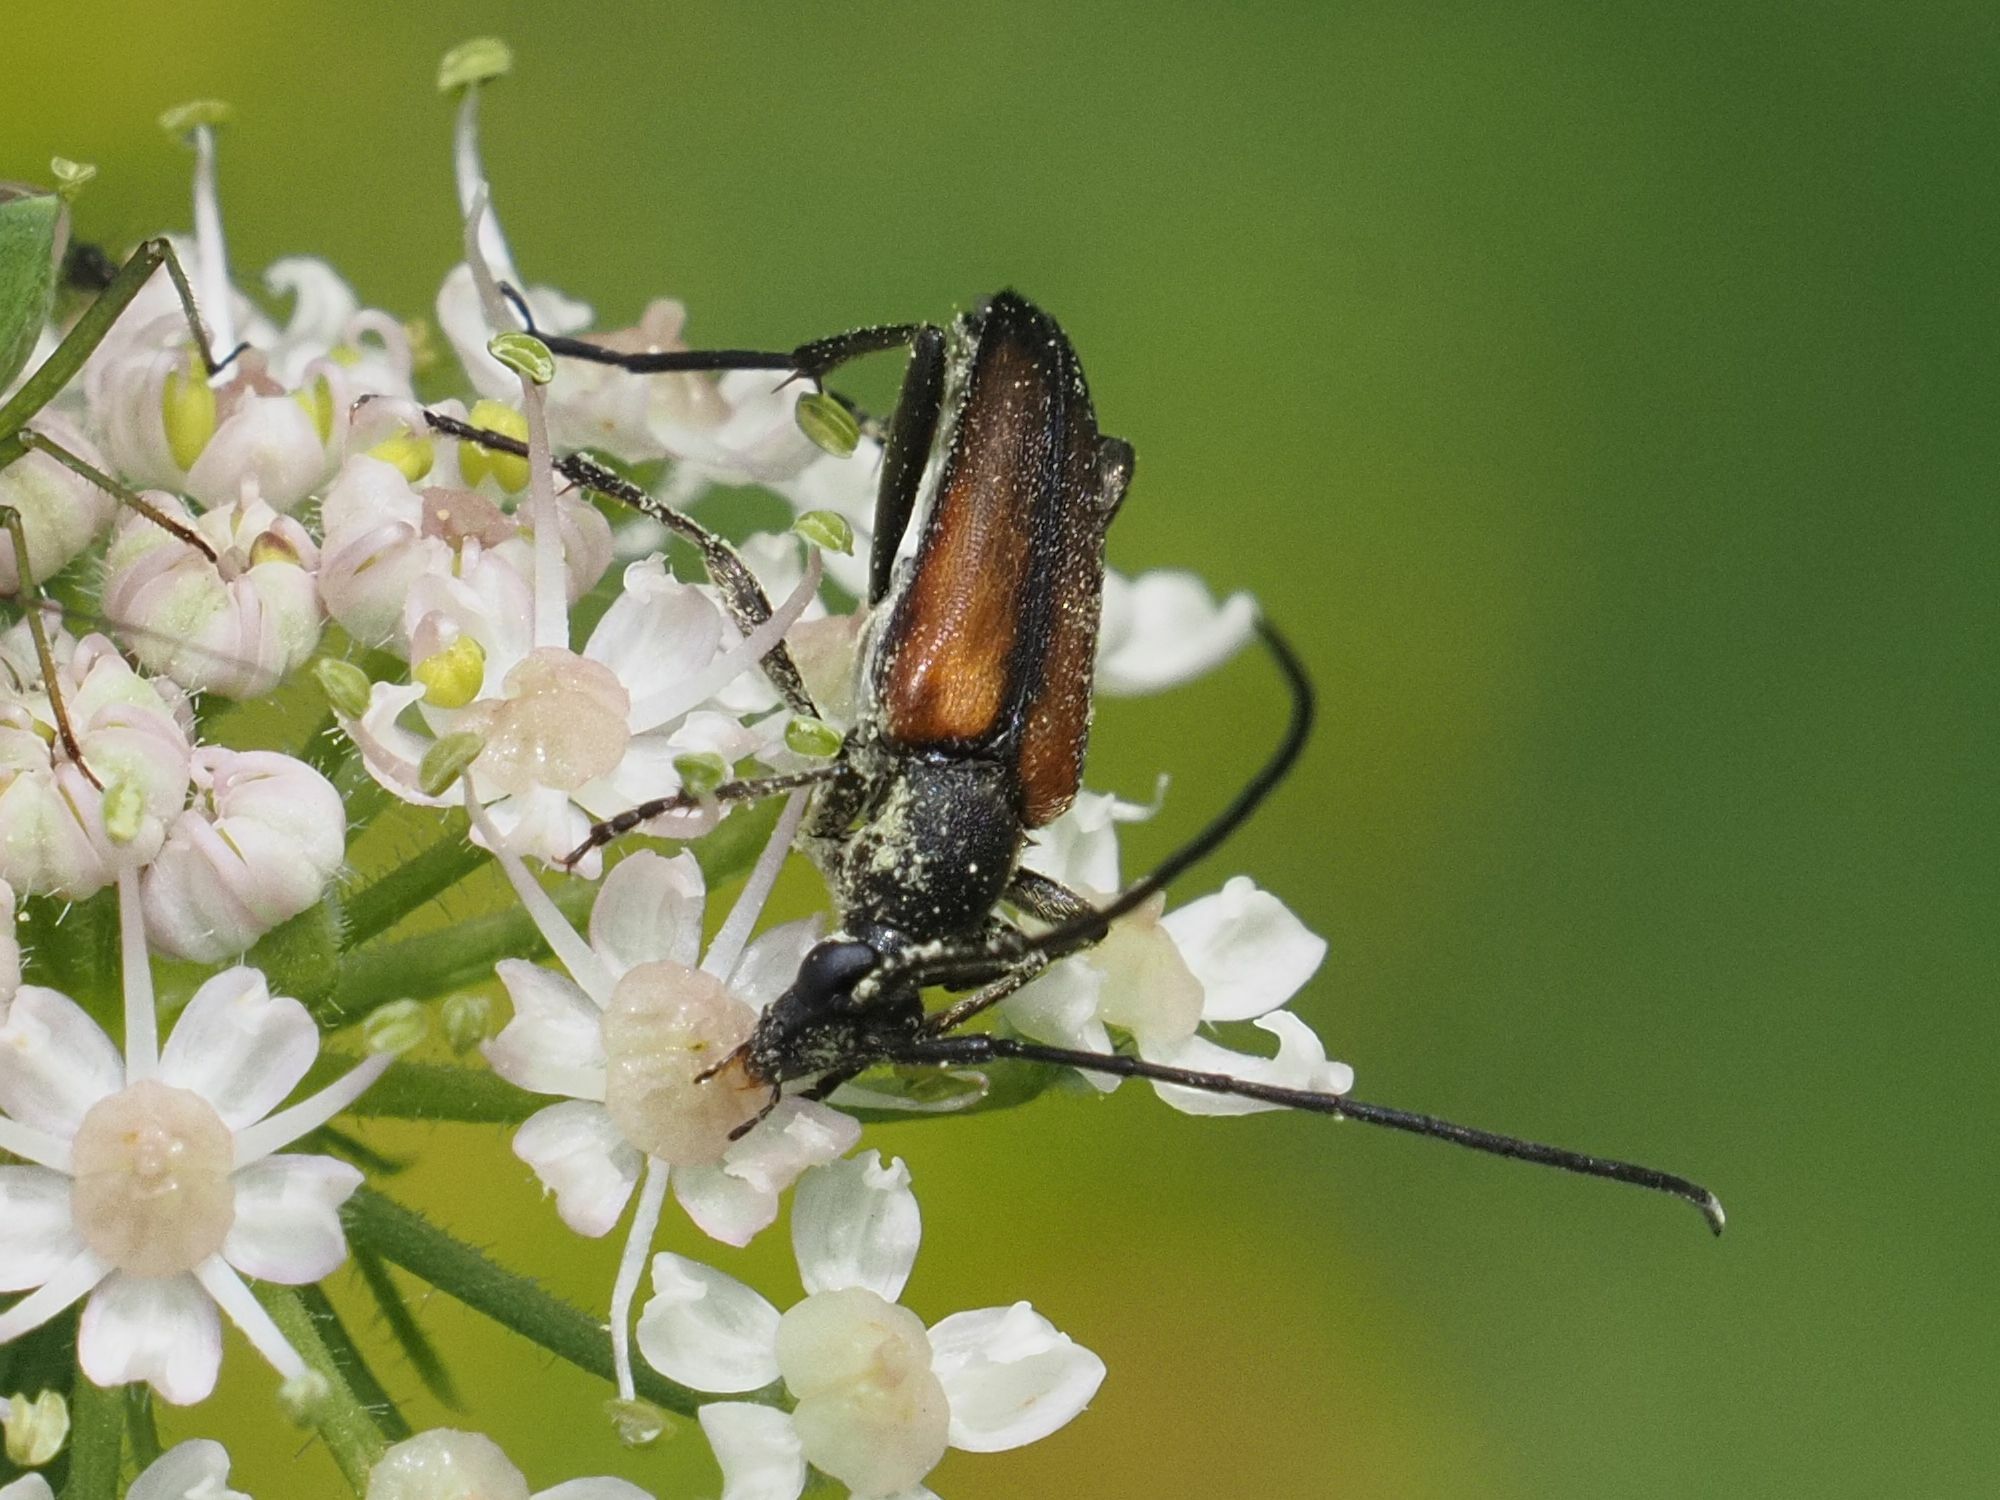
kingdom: Animalia
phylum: Arthropoda
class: Insecta
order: Coleoptera
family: Cerambycidae
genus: Stenurella
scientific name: Stenurella melanura
